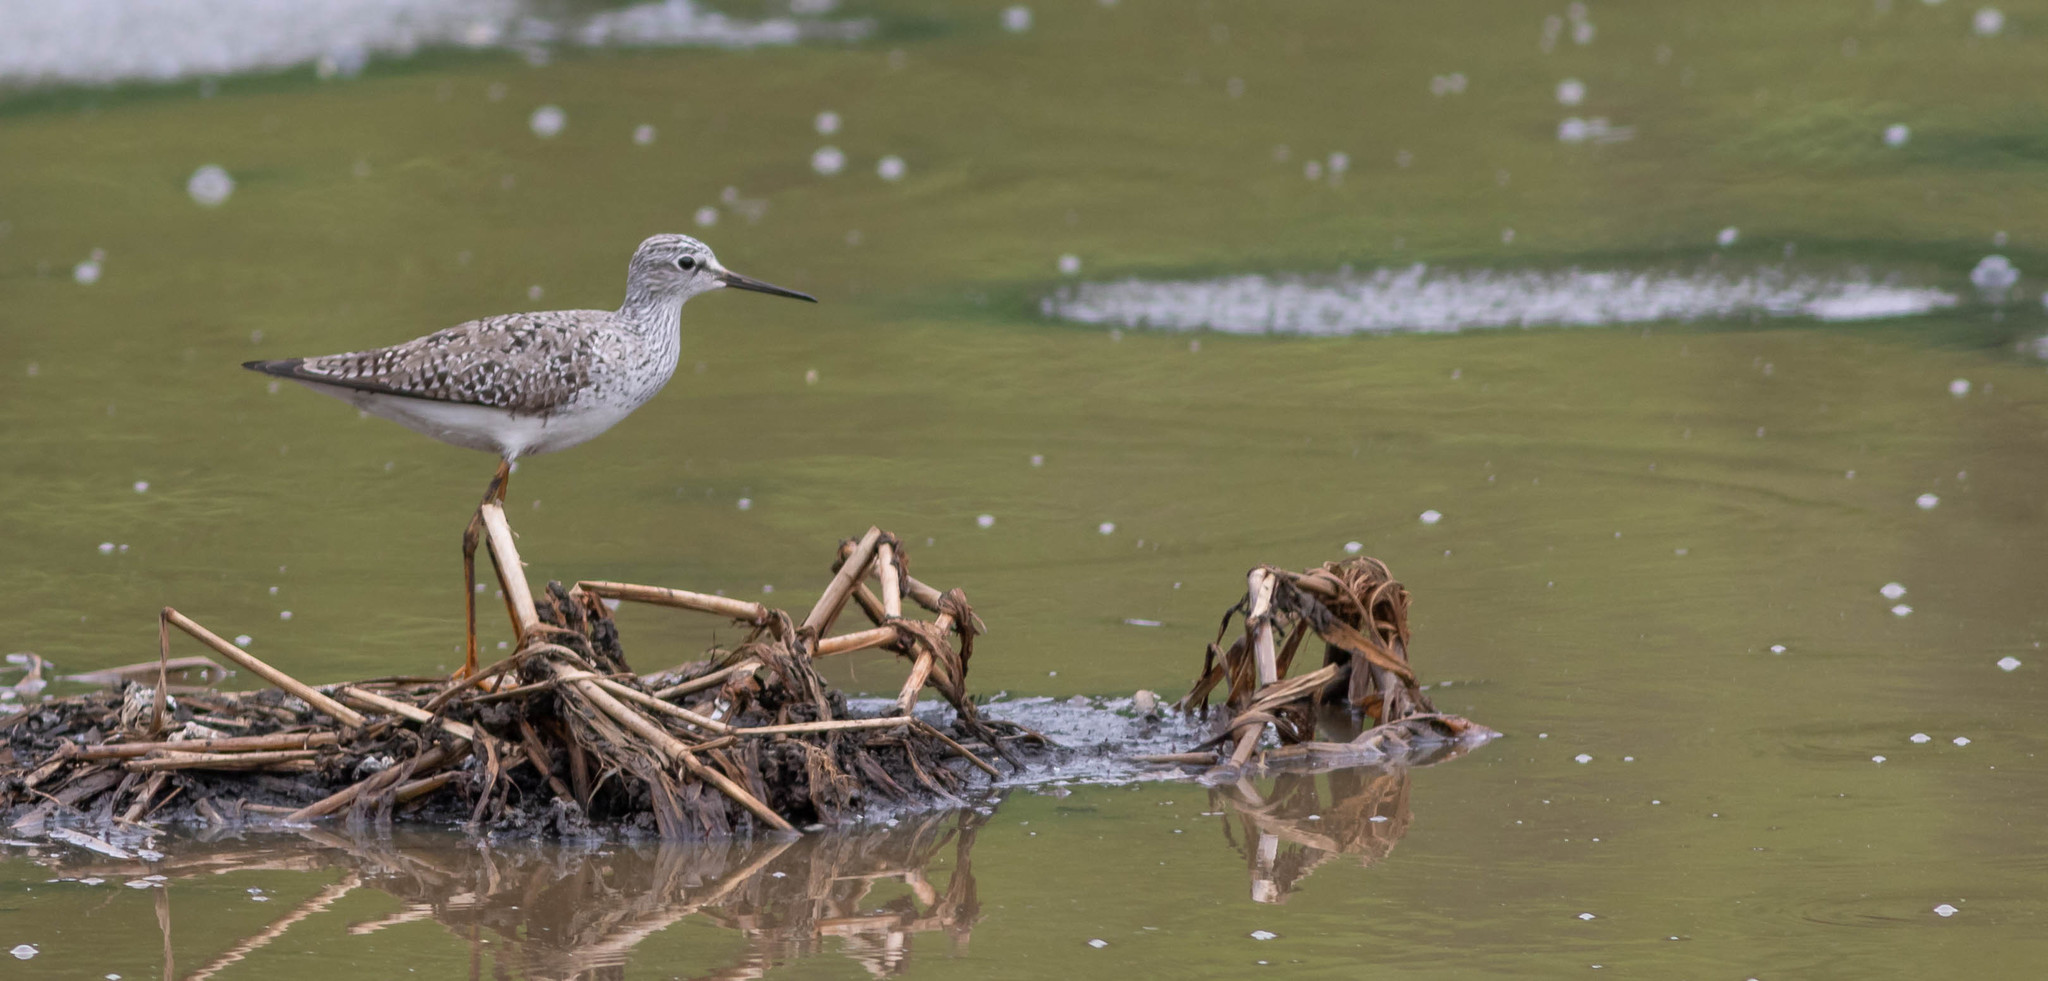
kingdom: Animalia
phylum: Chordata
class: Aves
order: Charadriiformes
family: Scolopacidae
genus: Tringa
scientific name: Tringa flavipes
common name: Lesser yellowlegs
